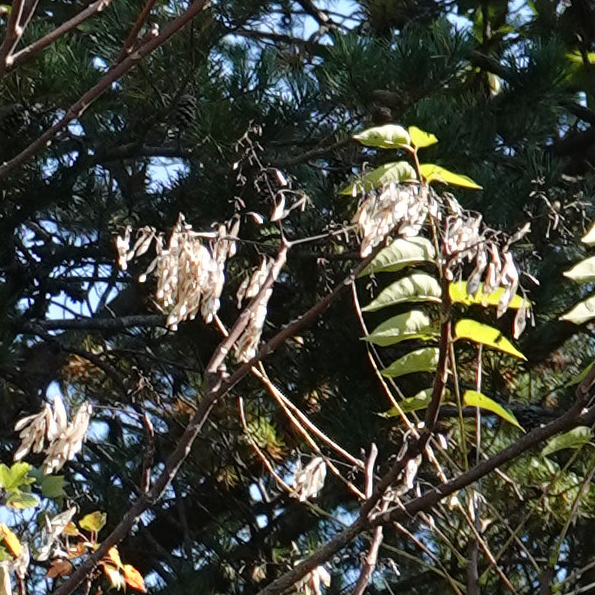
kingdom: Plantae
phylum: Tracheophyta
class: Magnoliopsida
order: Sapindales
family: Simaroubaceae
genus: Ailanthus
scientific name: Ailanthus altissima
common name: Tree-of-heaven
